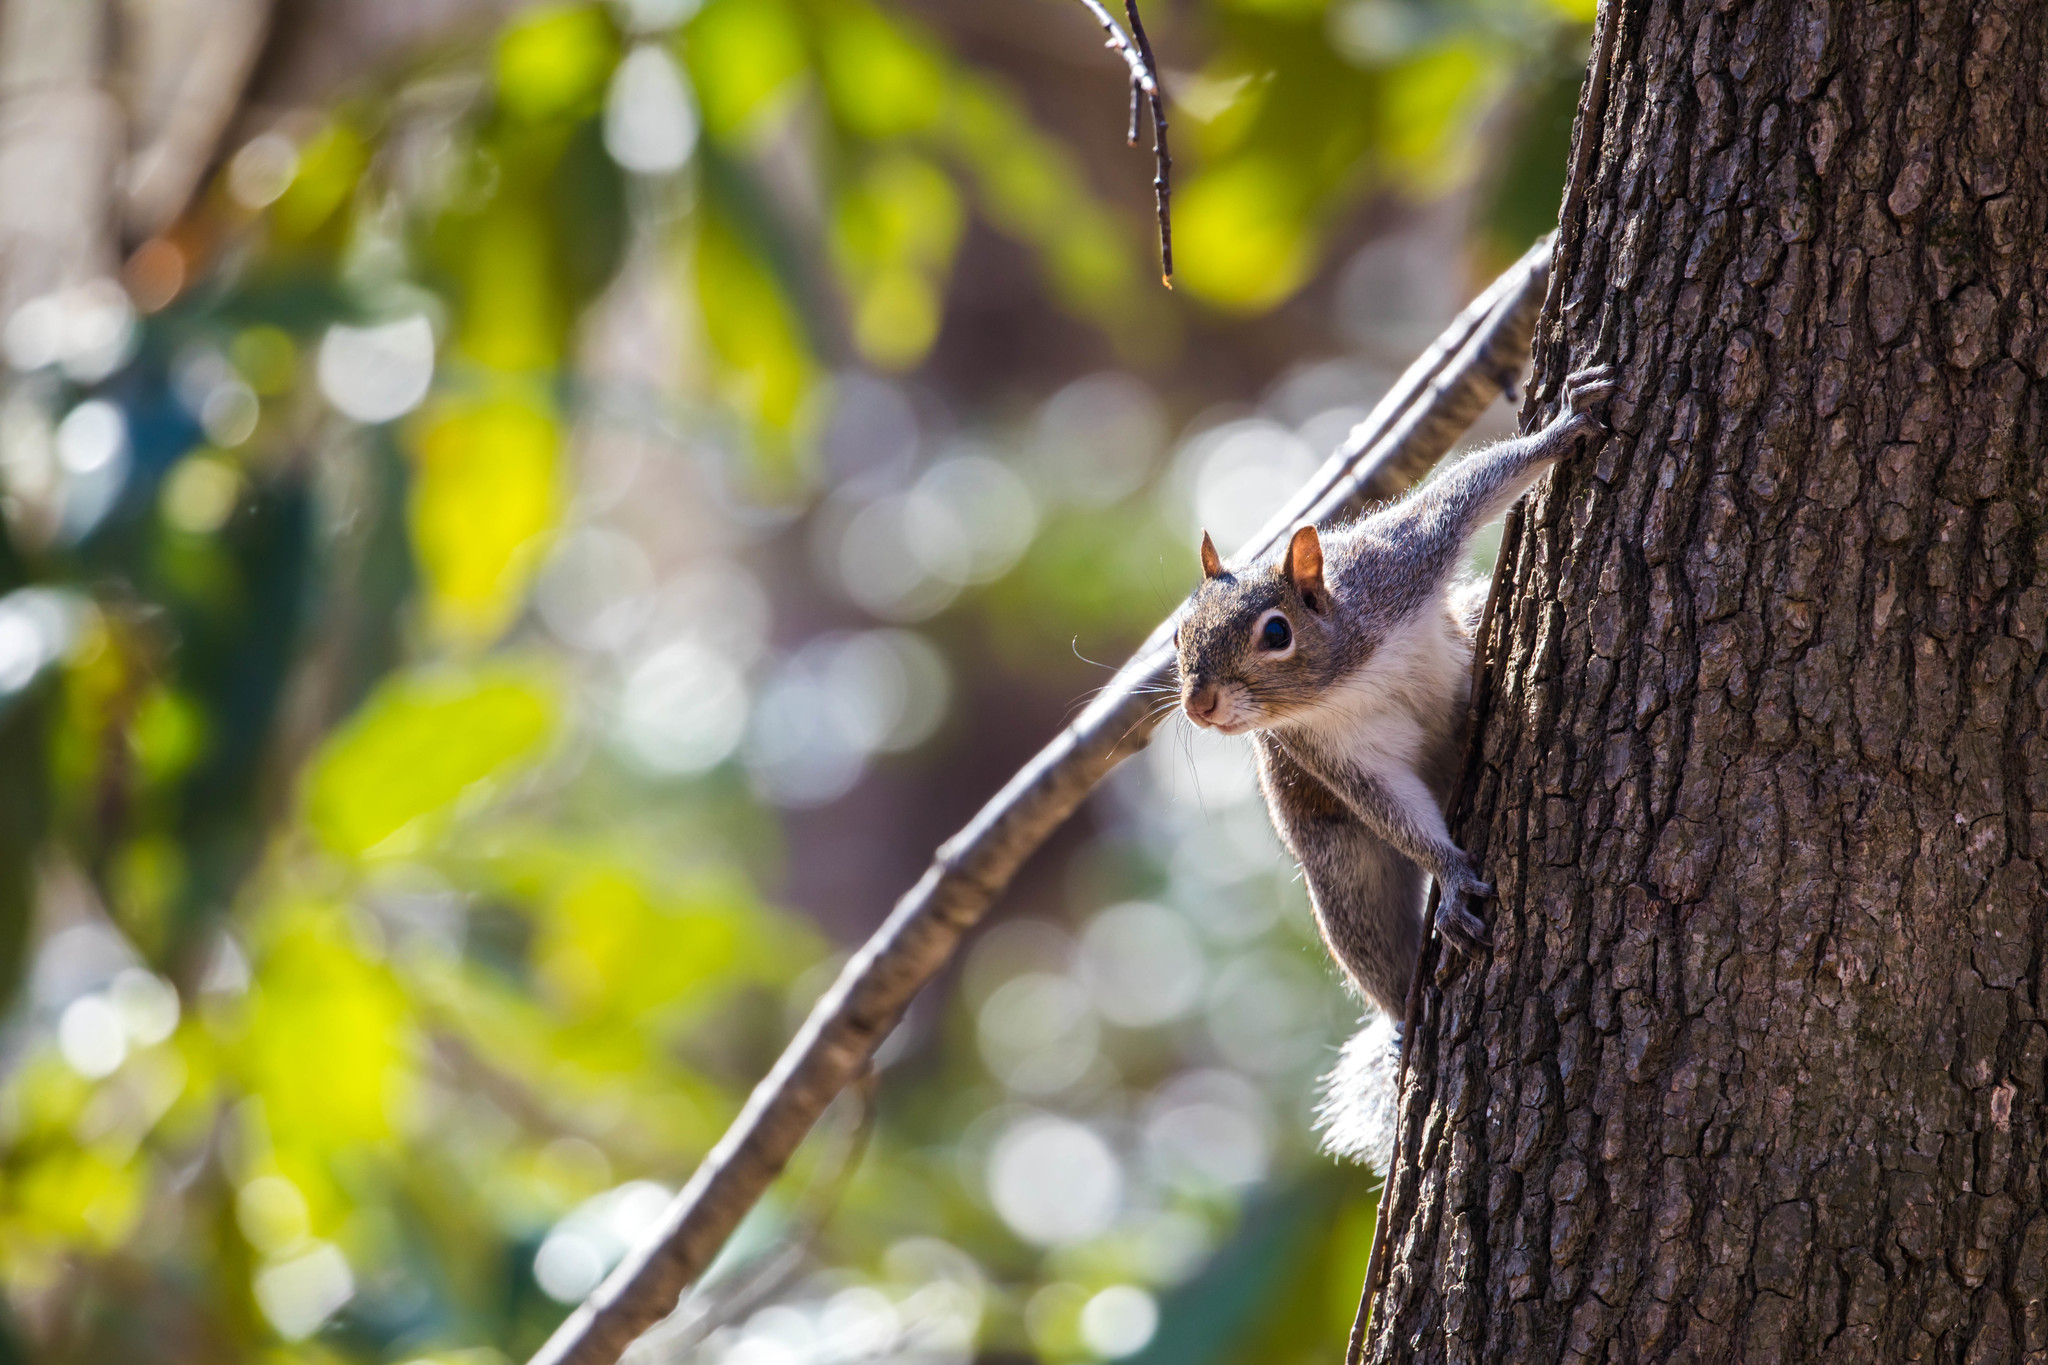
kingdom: Animalia
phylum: Chordata
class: Mammalia
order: Rodentia
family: Sciuridae
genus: Sciurus
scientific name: Sciurus carolinensis
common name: Eastern gray squirrel
